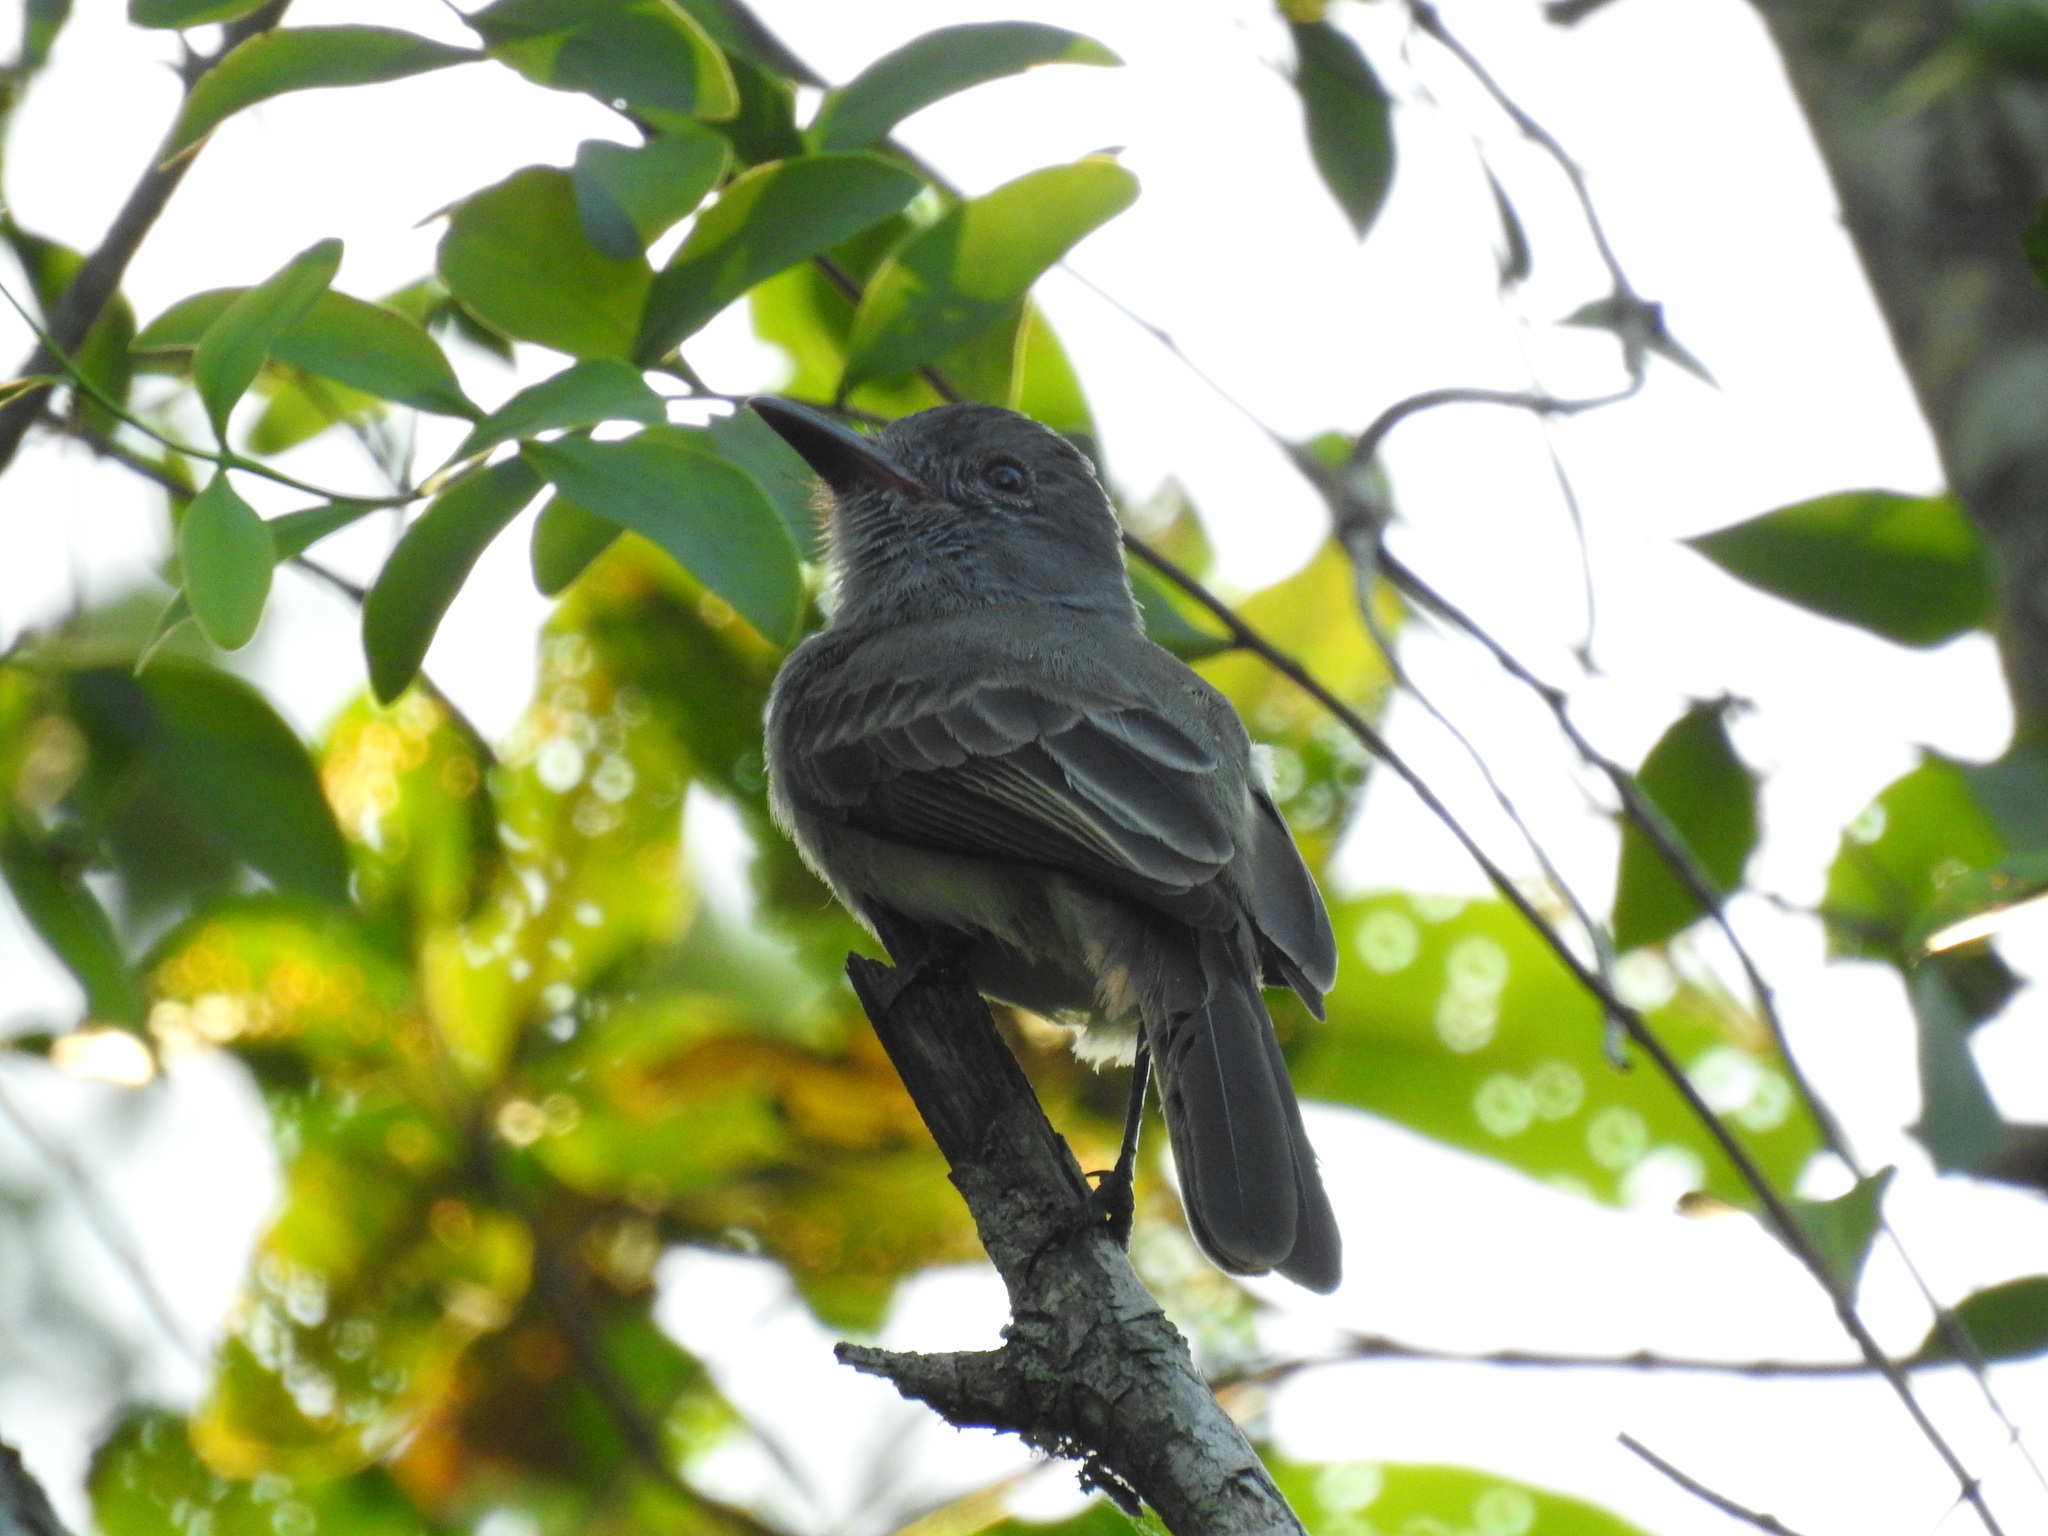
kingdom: Animalia
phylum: Chordata
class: Aves
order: Passeriformes
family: Tyrannidae
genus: Myiarchus
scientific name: Myiarchus panamensis
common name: Panama flycatcher
